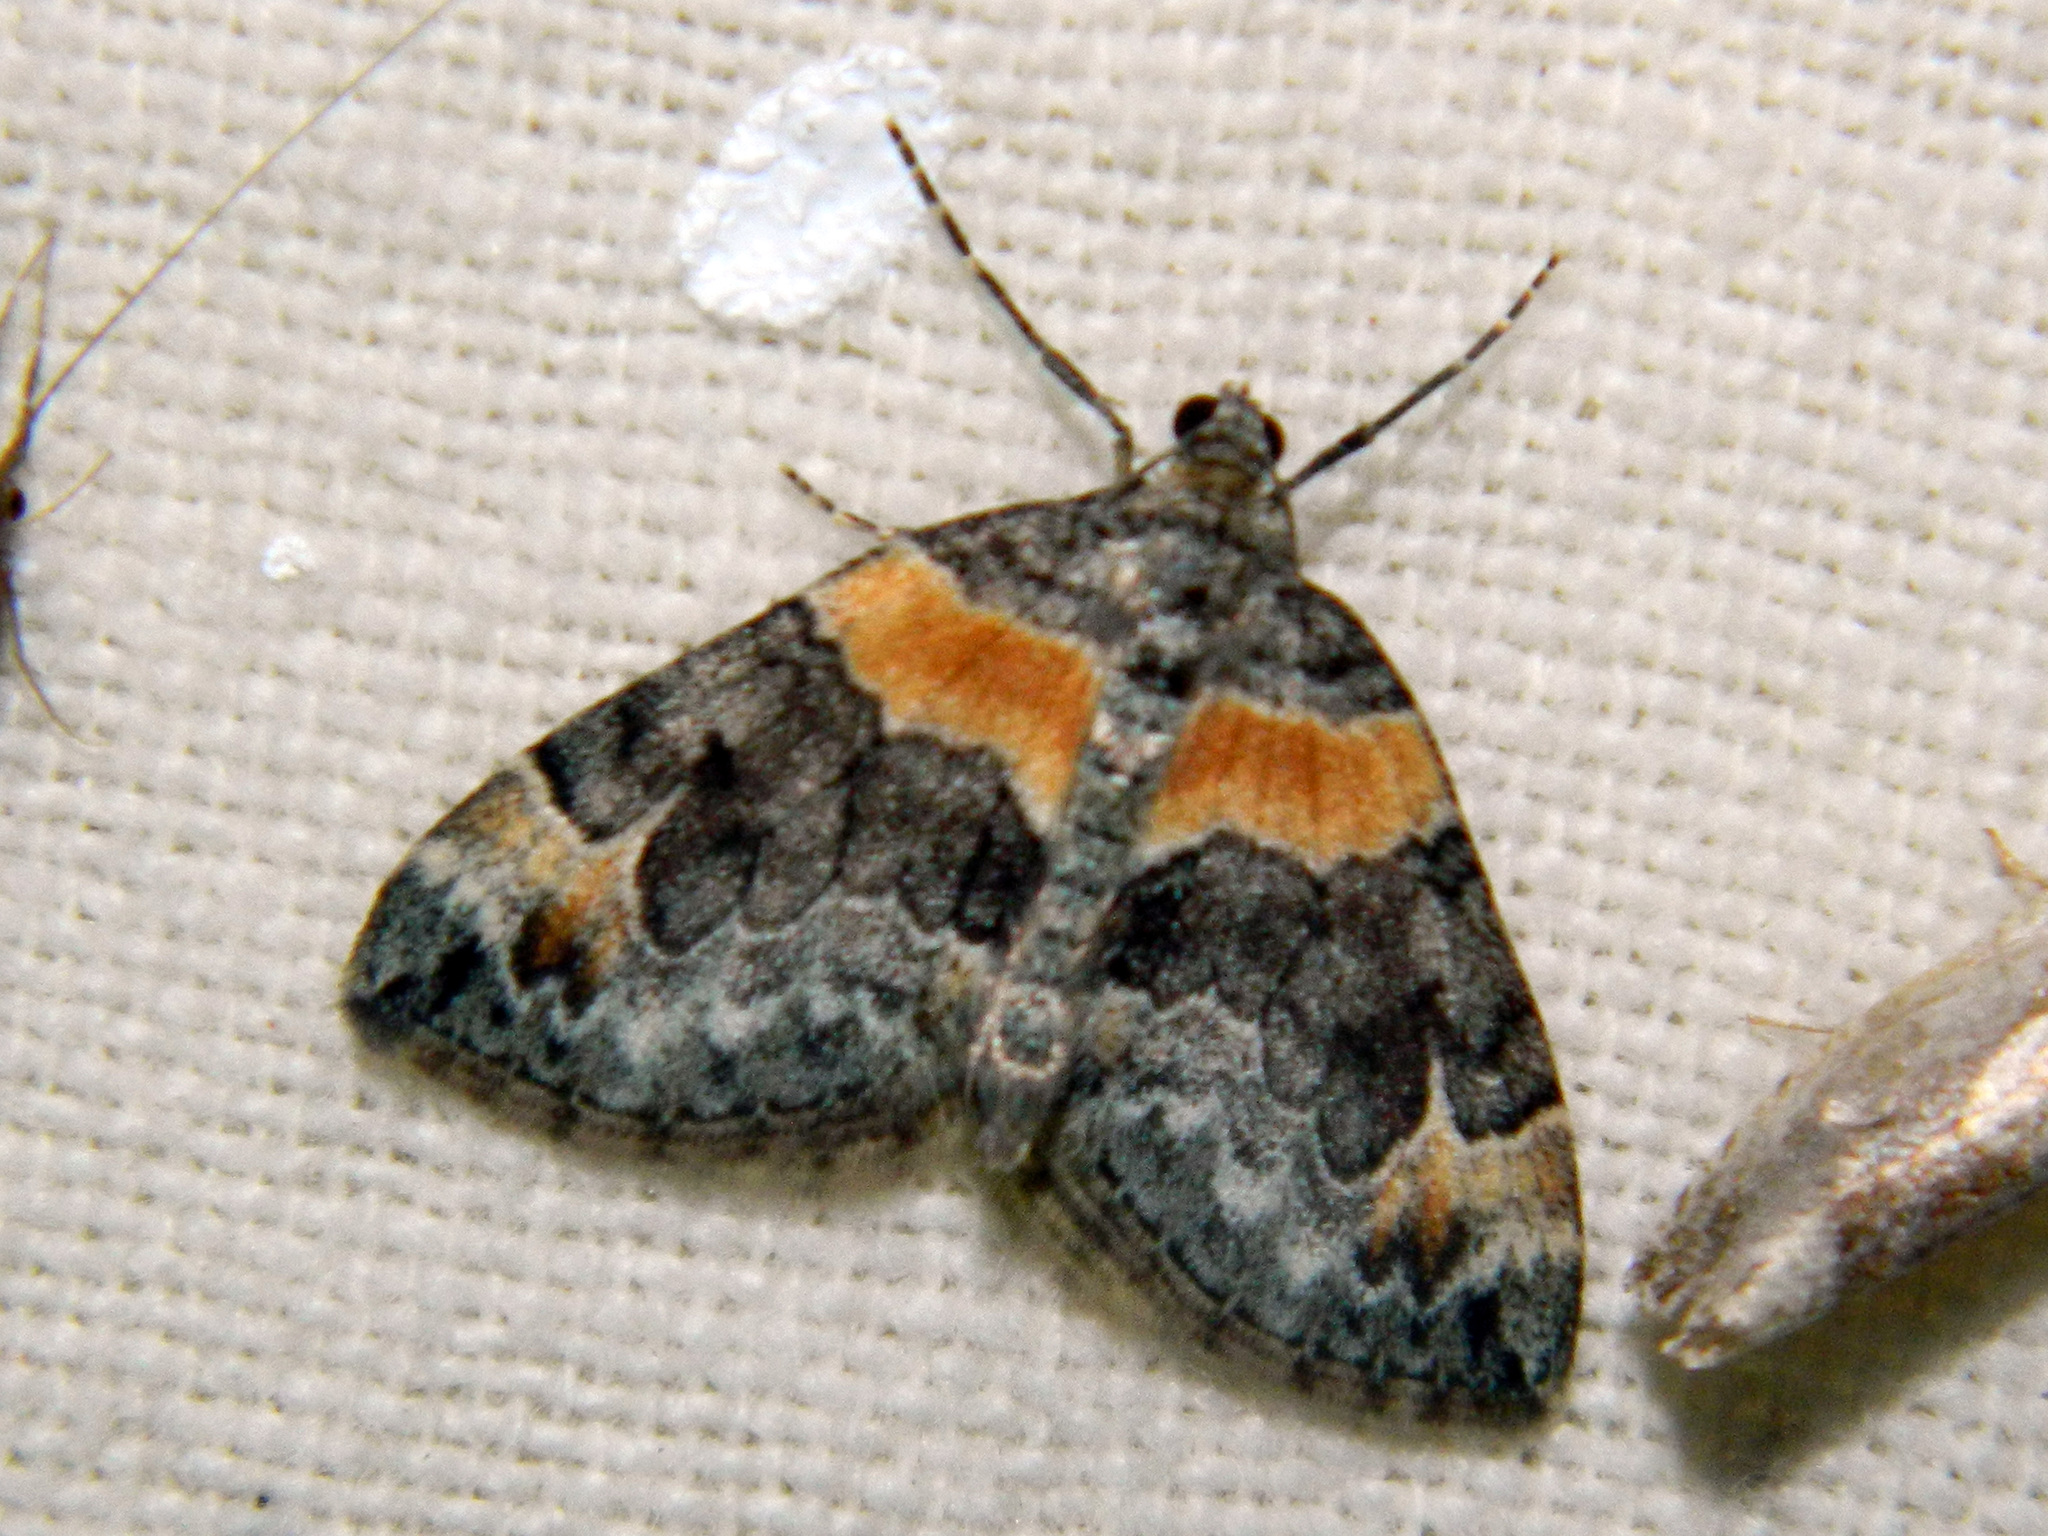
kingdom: Animalia
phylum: Arthropoda
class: Insecta
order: Lepidoptera
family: Geometridae
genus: Dysstroma
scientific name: Dysstroma hersiliata
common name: Orange-barred carpet
